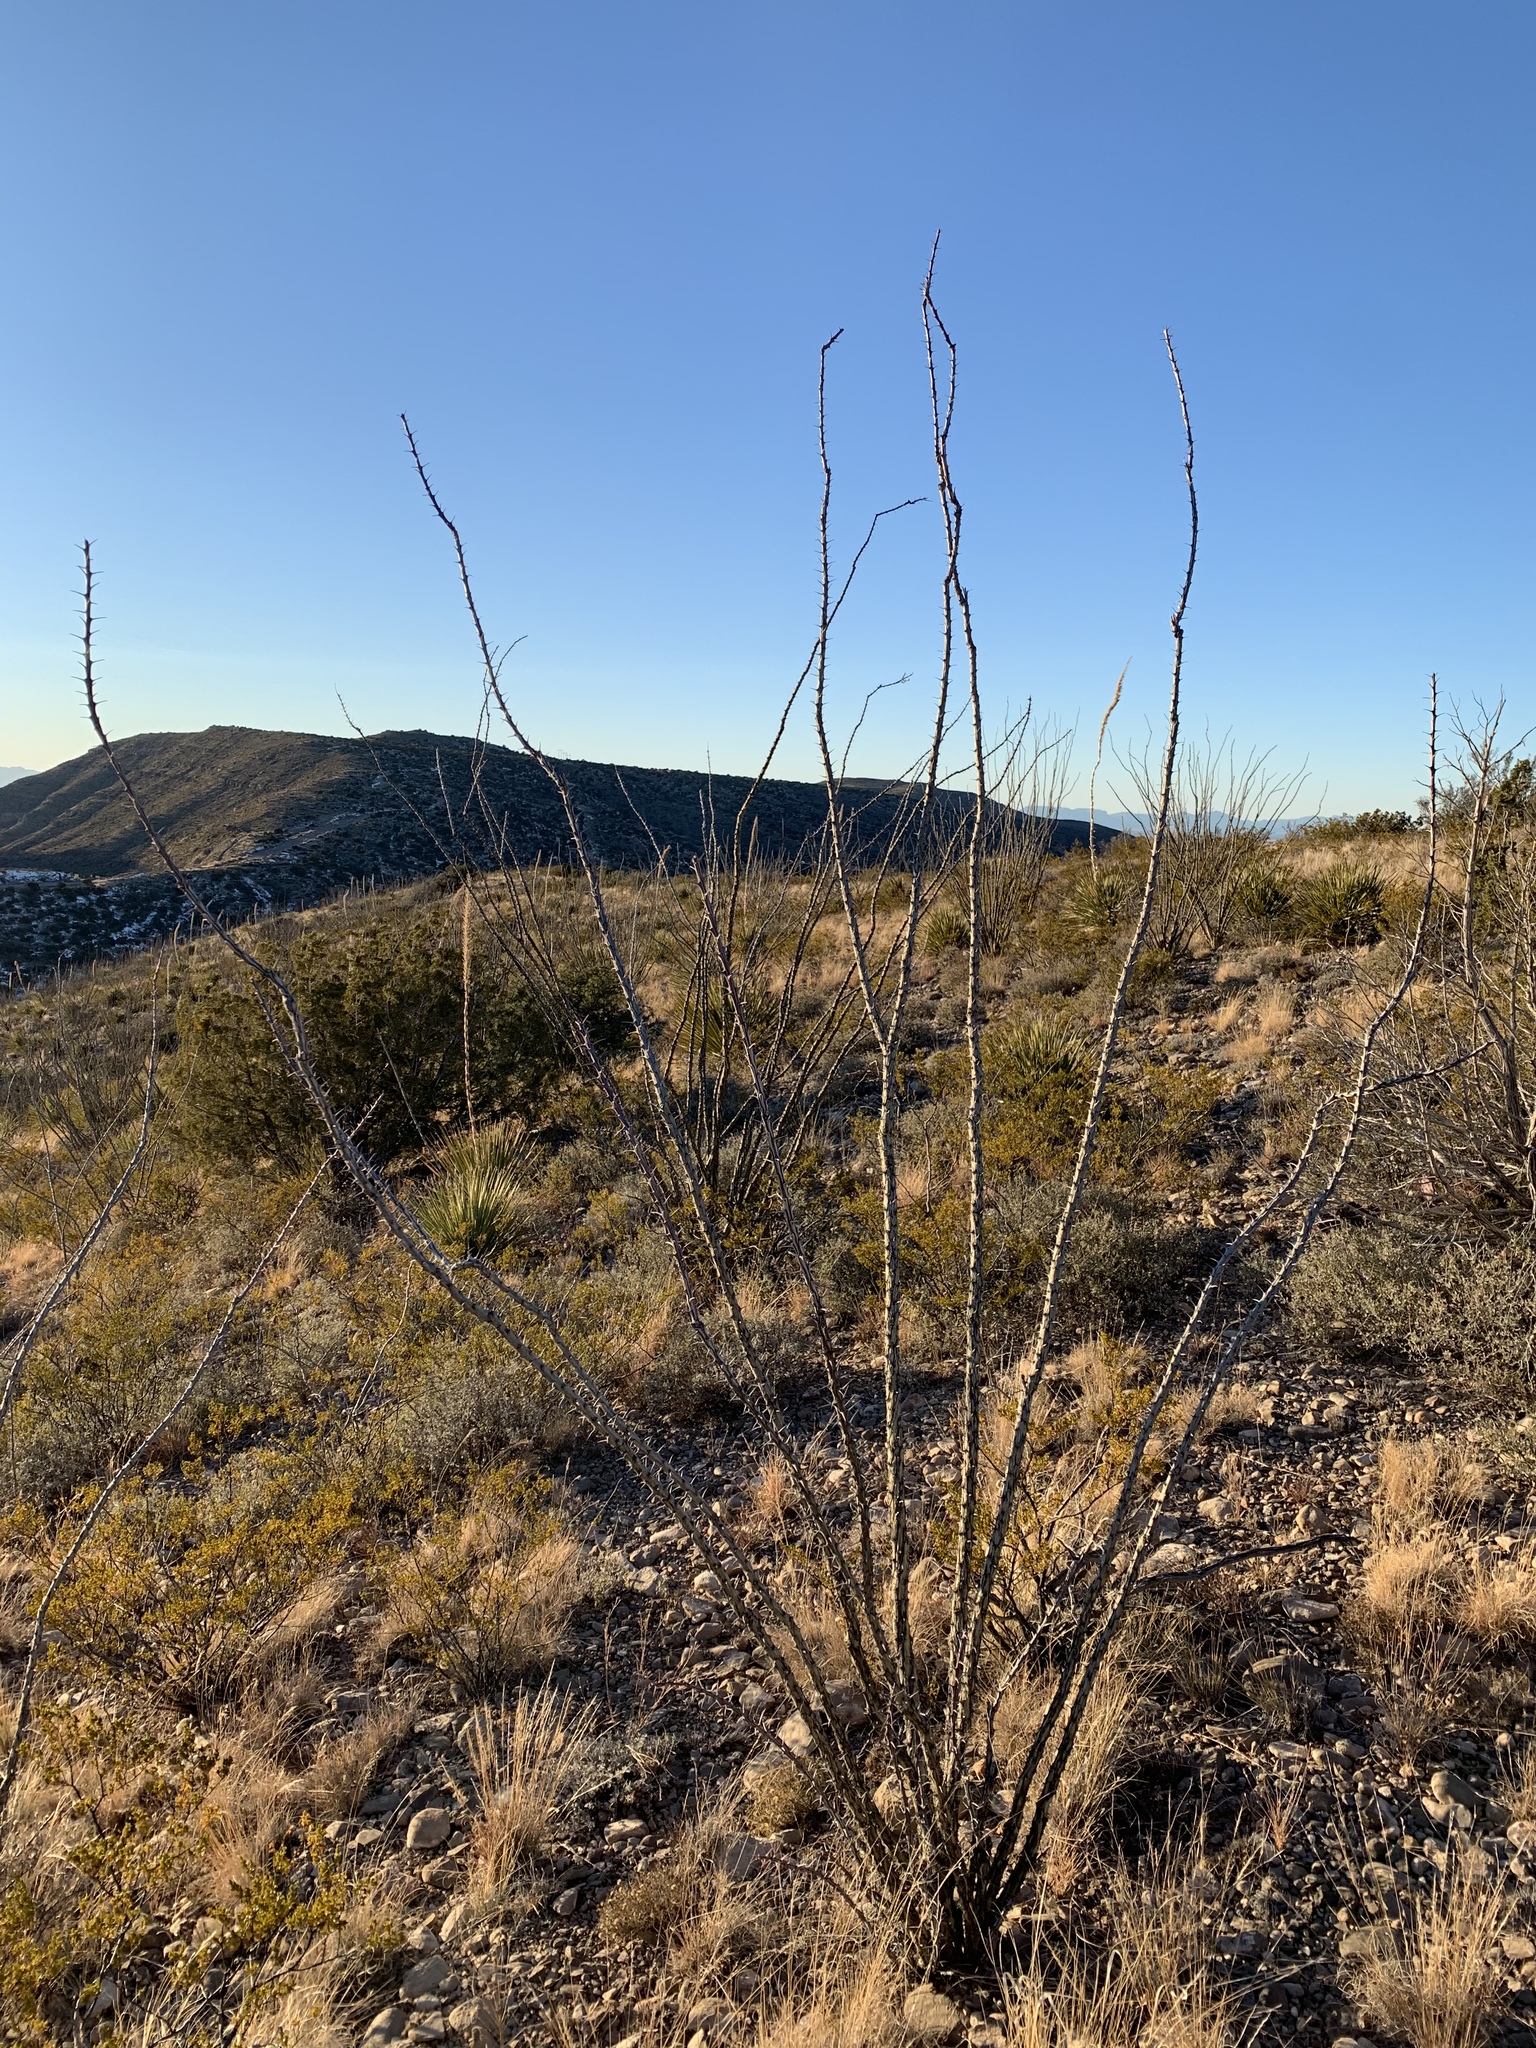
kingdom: Plantae
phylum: Tracheophyta
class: Magnoliopsida
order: Ericales
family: Fouquieriaceae
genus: Fouquieria
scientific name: Fouquieria splendens
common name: Vine-cactus
